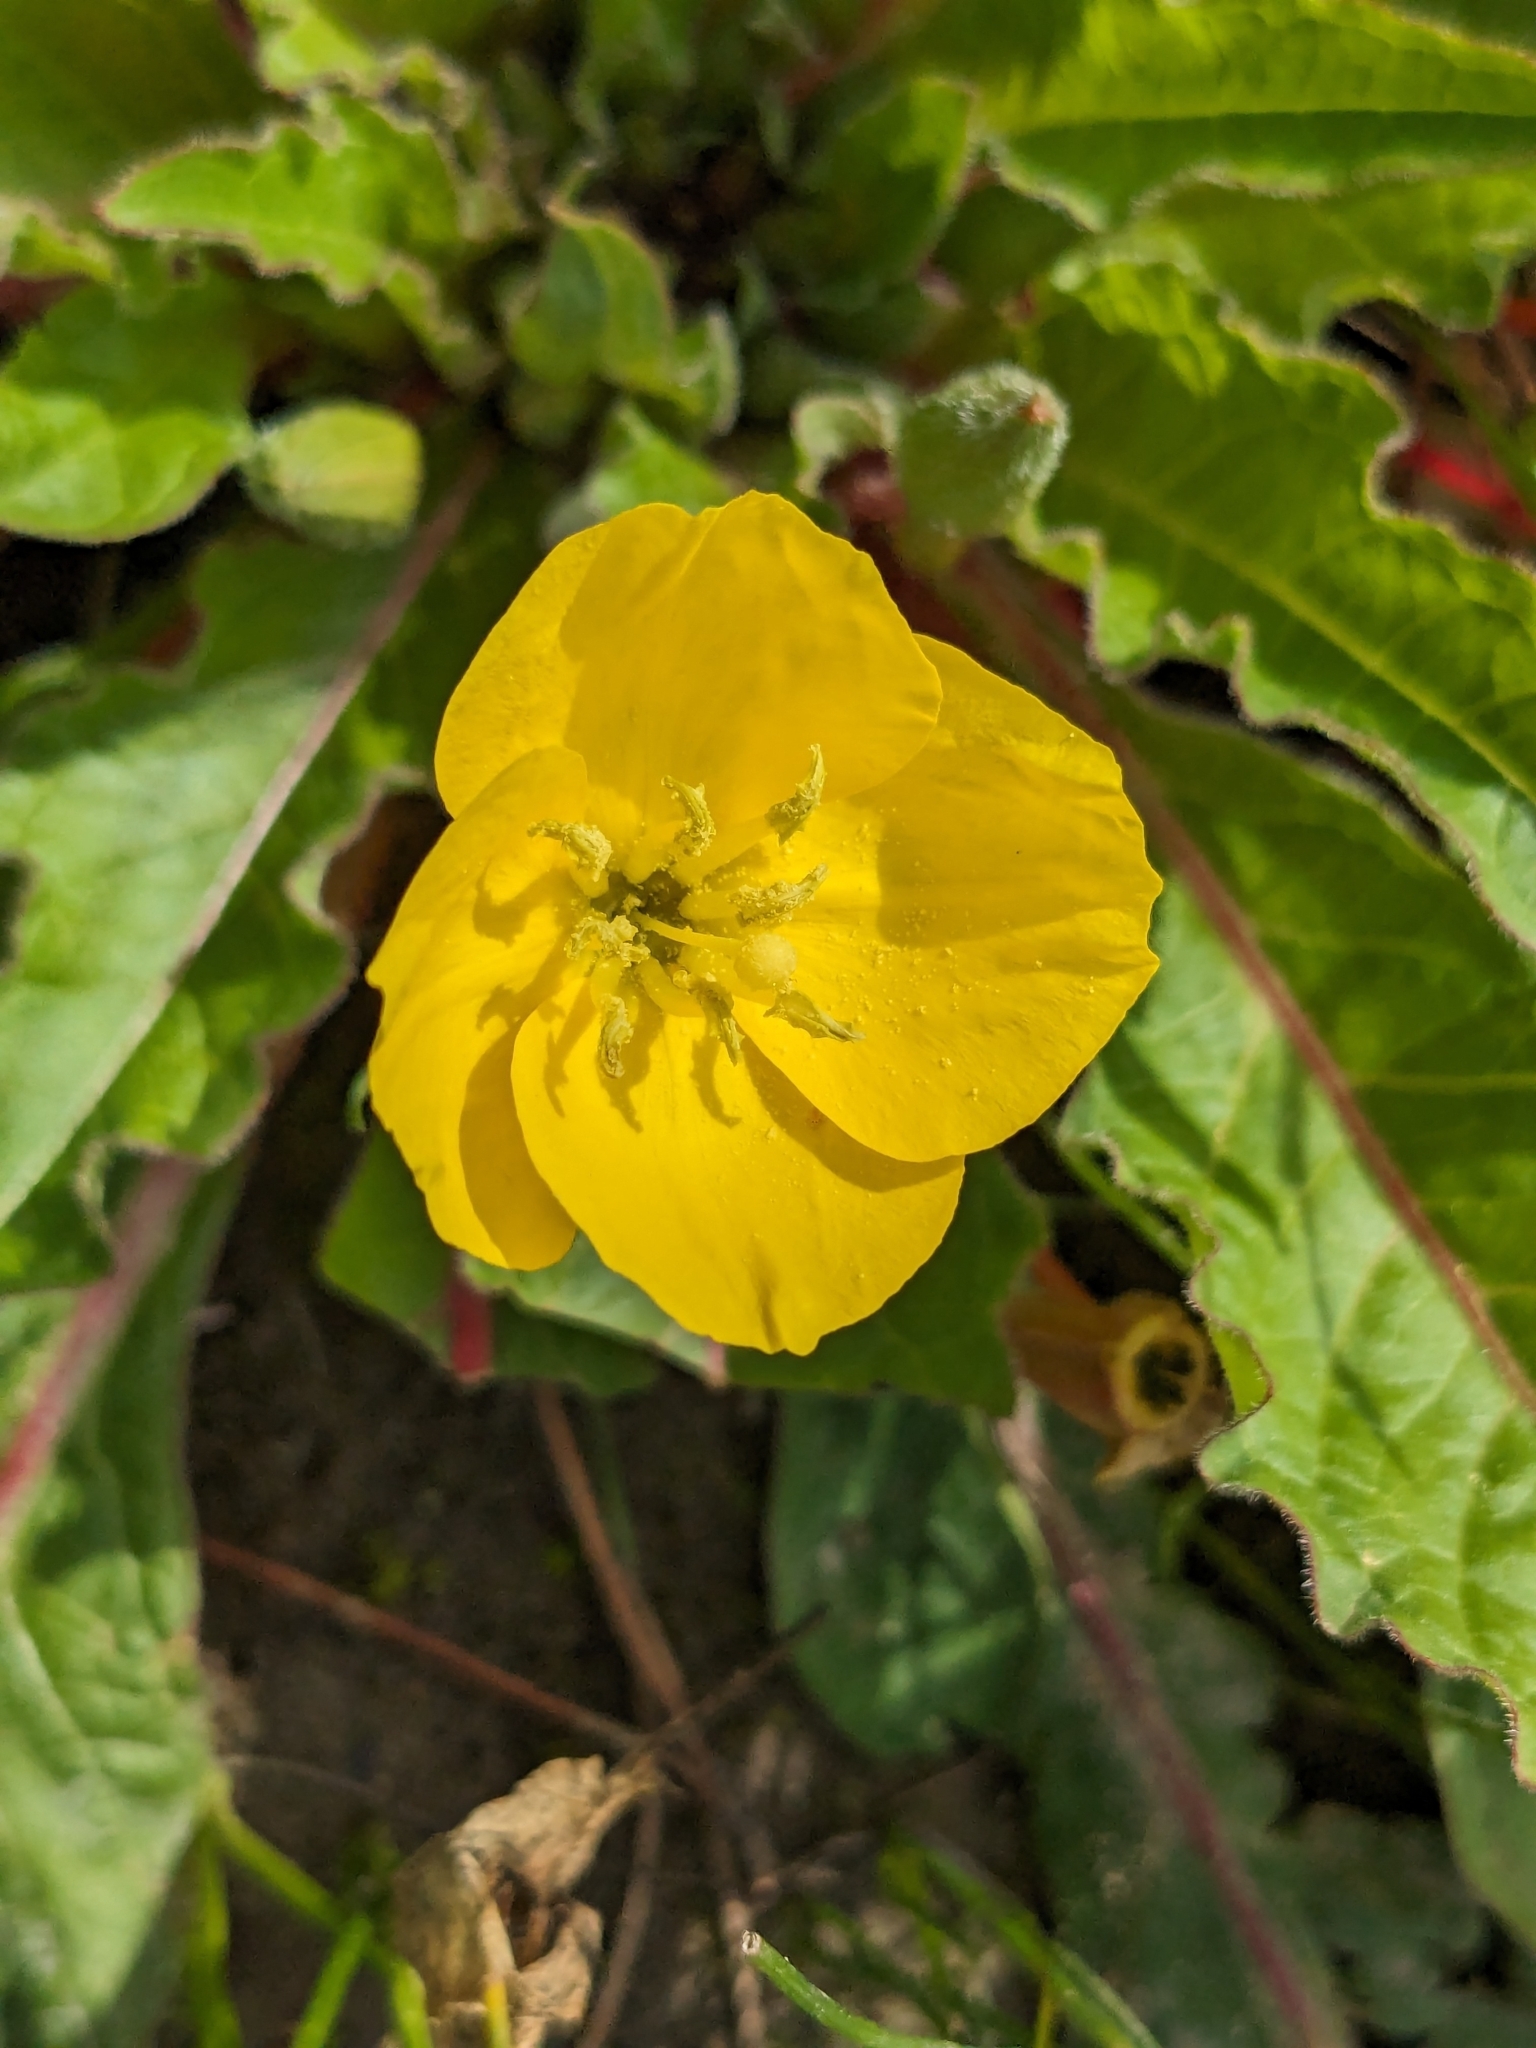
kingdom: Plantae
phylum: Tracheophyta
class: Magnoliopsida
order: Myrtales
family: Onagraceae
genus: Taraxia
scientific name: Taraxia ovata
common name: Goldeneggs
